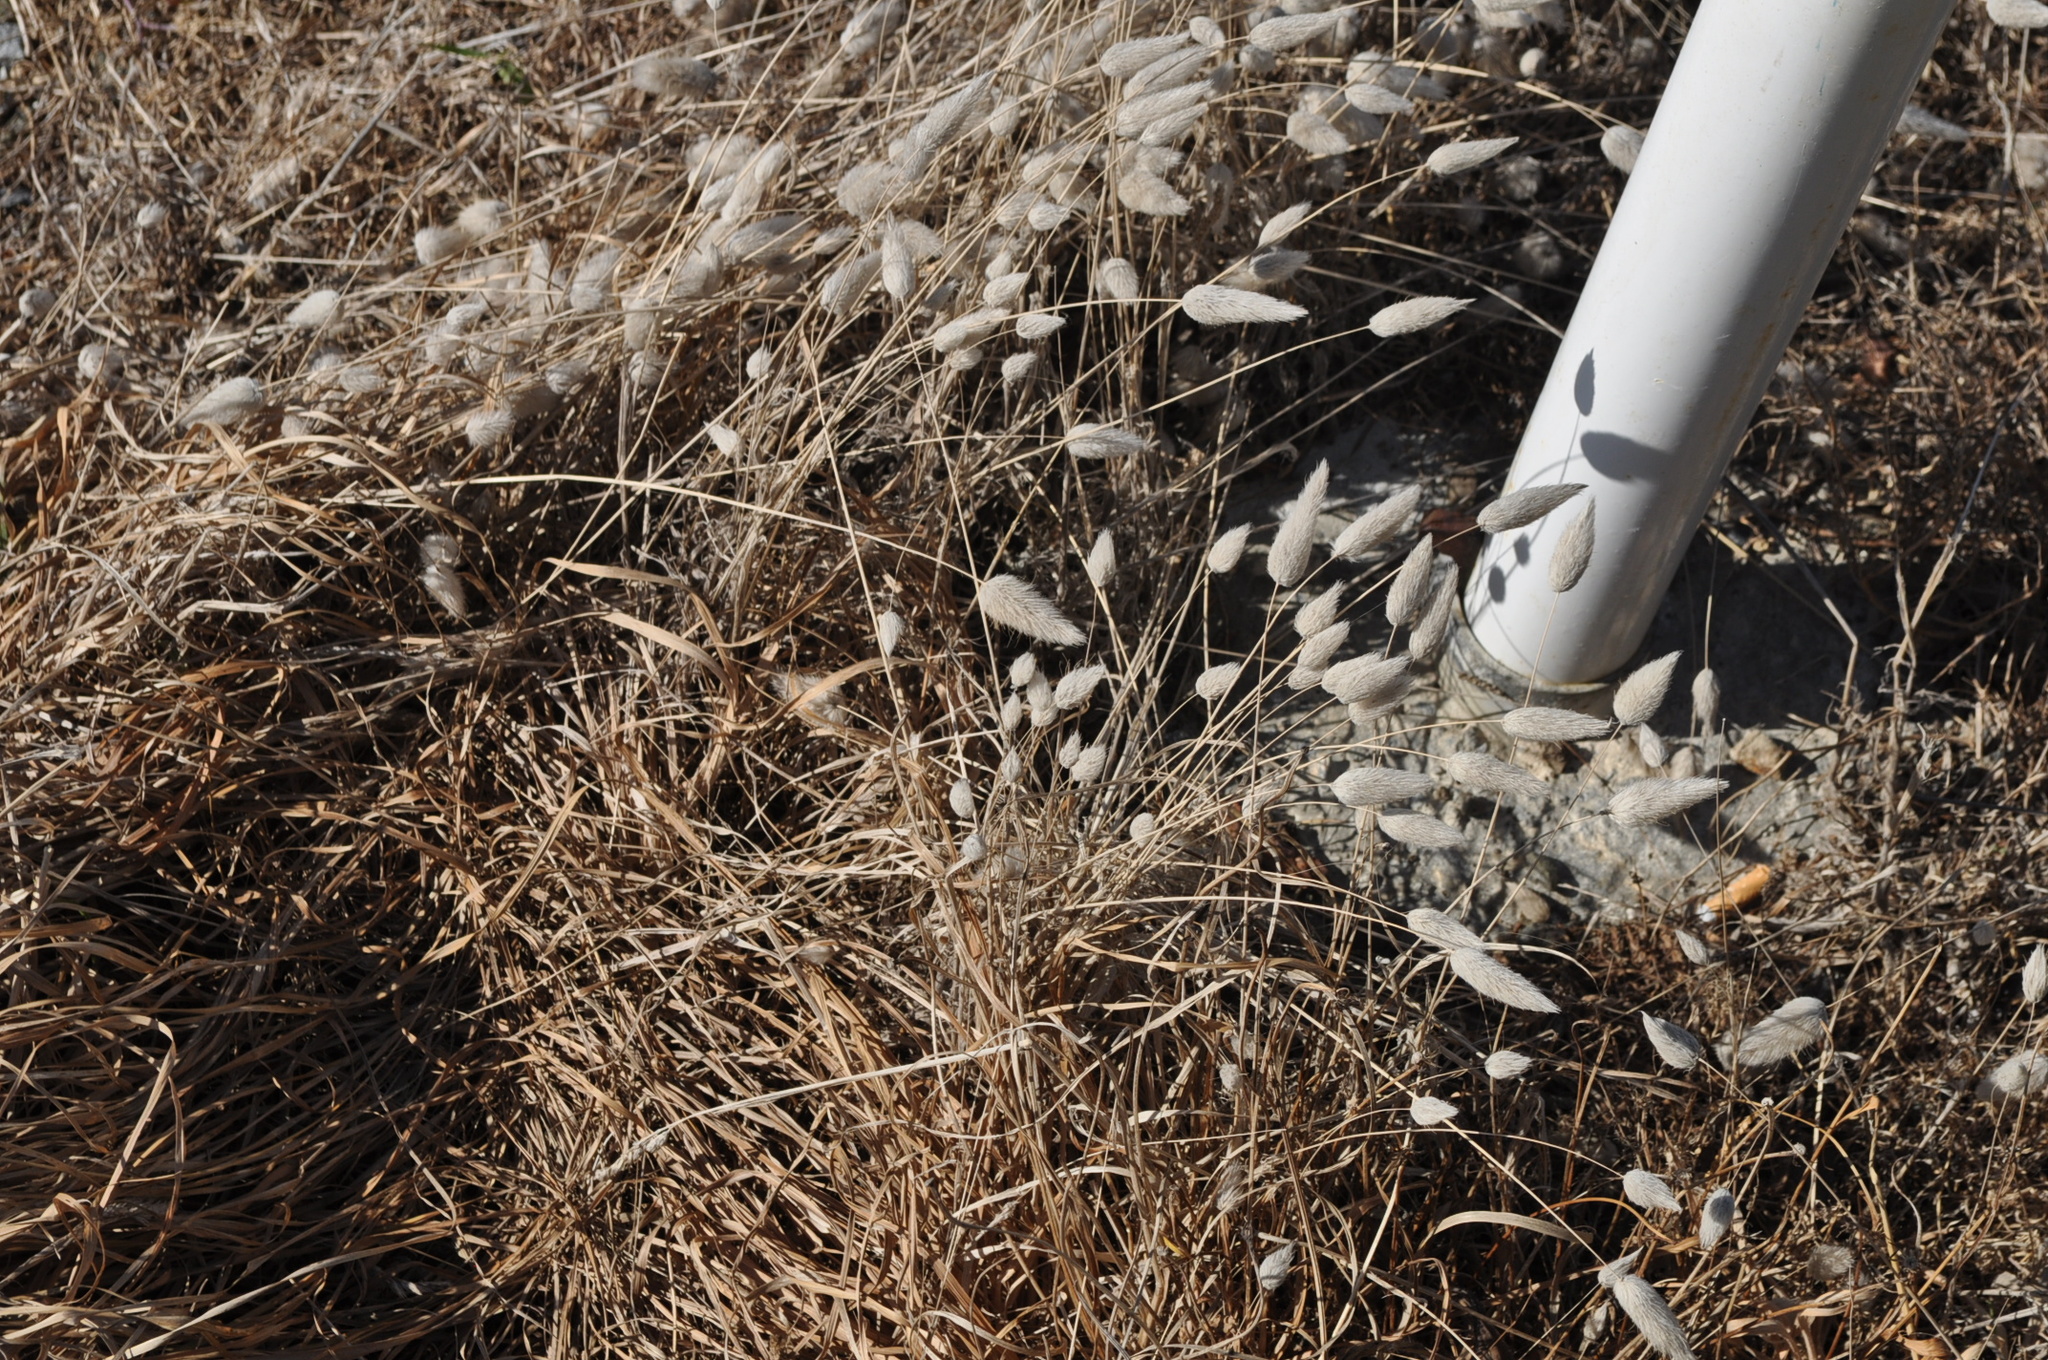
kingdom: Plantae
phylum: Tracheophyta
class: Liliopsida
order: Poales
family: Poaceae
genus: Lagurus
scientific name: Lagurus ovatus
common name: Hare's-tail
